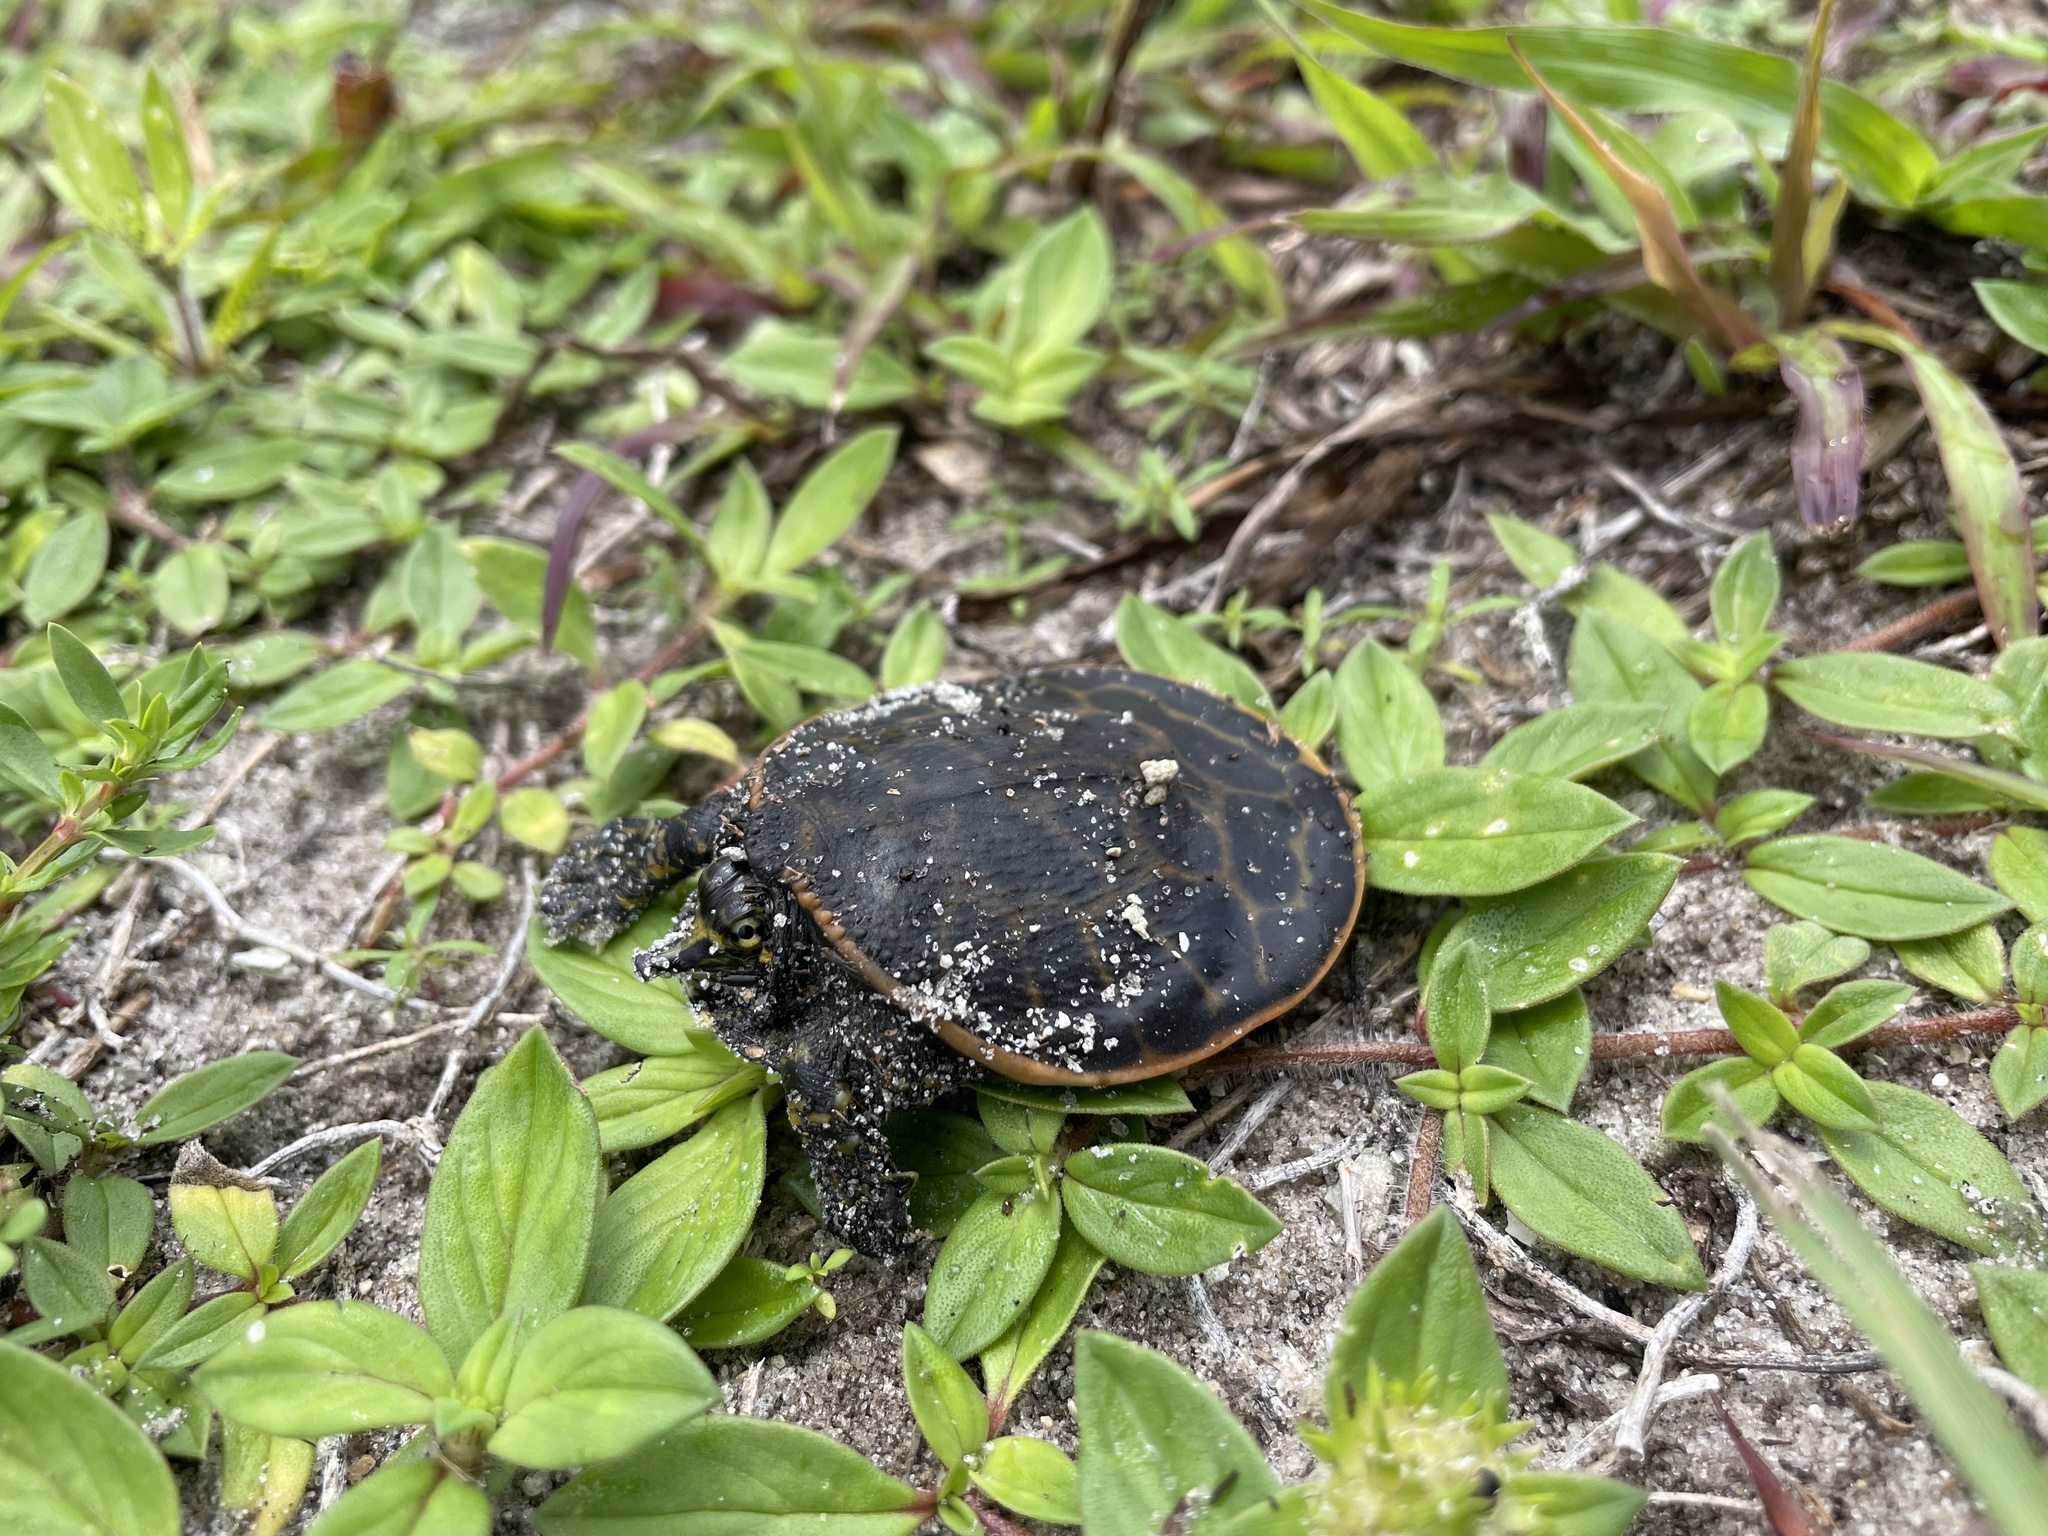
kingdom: Animalia
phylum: Chordata
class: Testudines
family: Trionychidae
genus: Apalone
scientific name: Apalone ferox
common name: Florida softshell turtle
